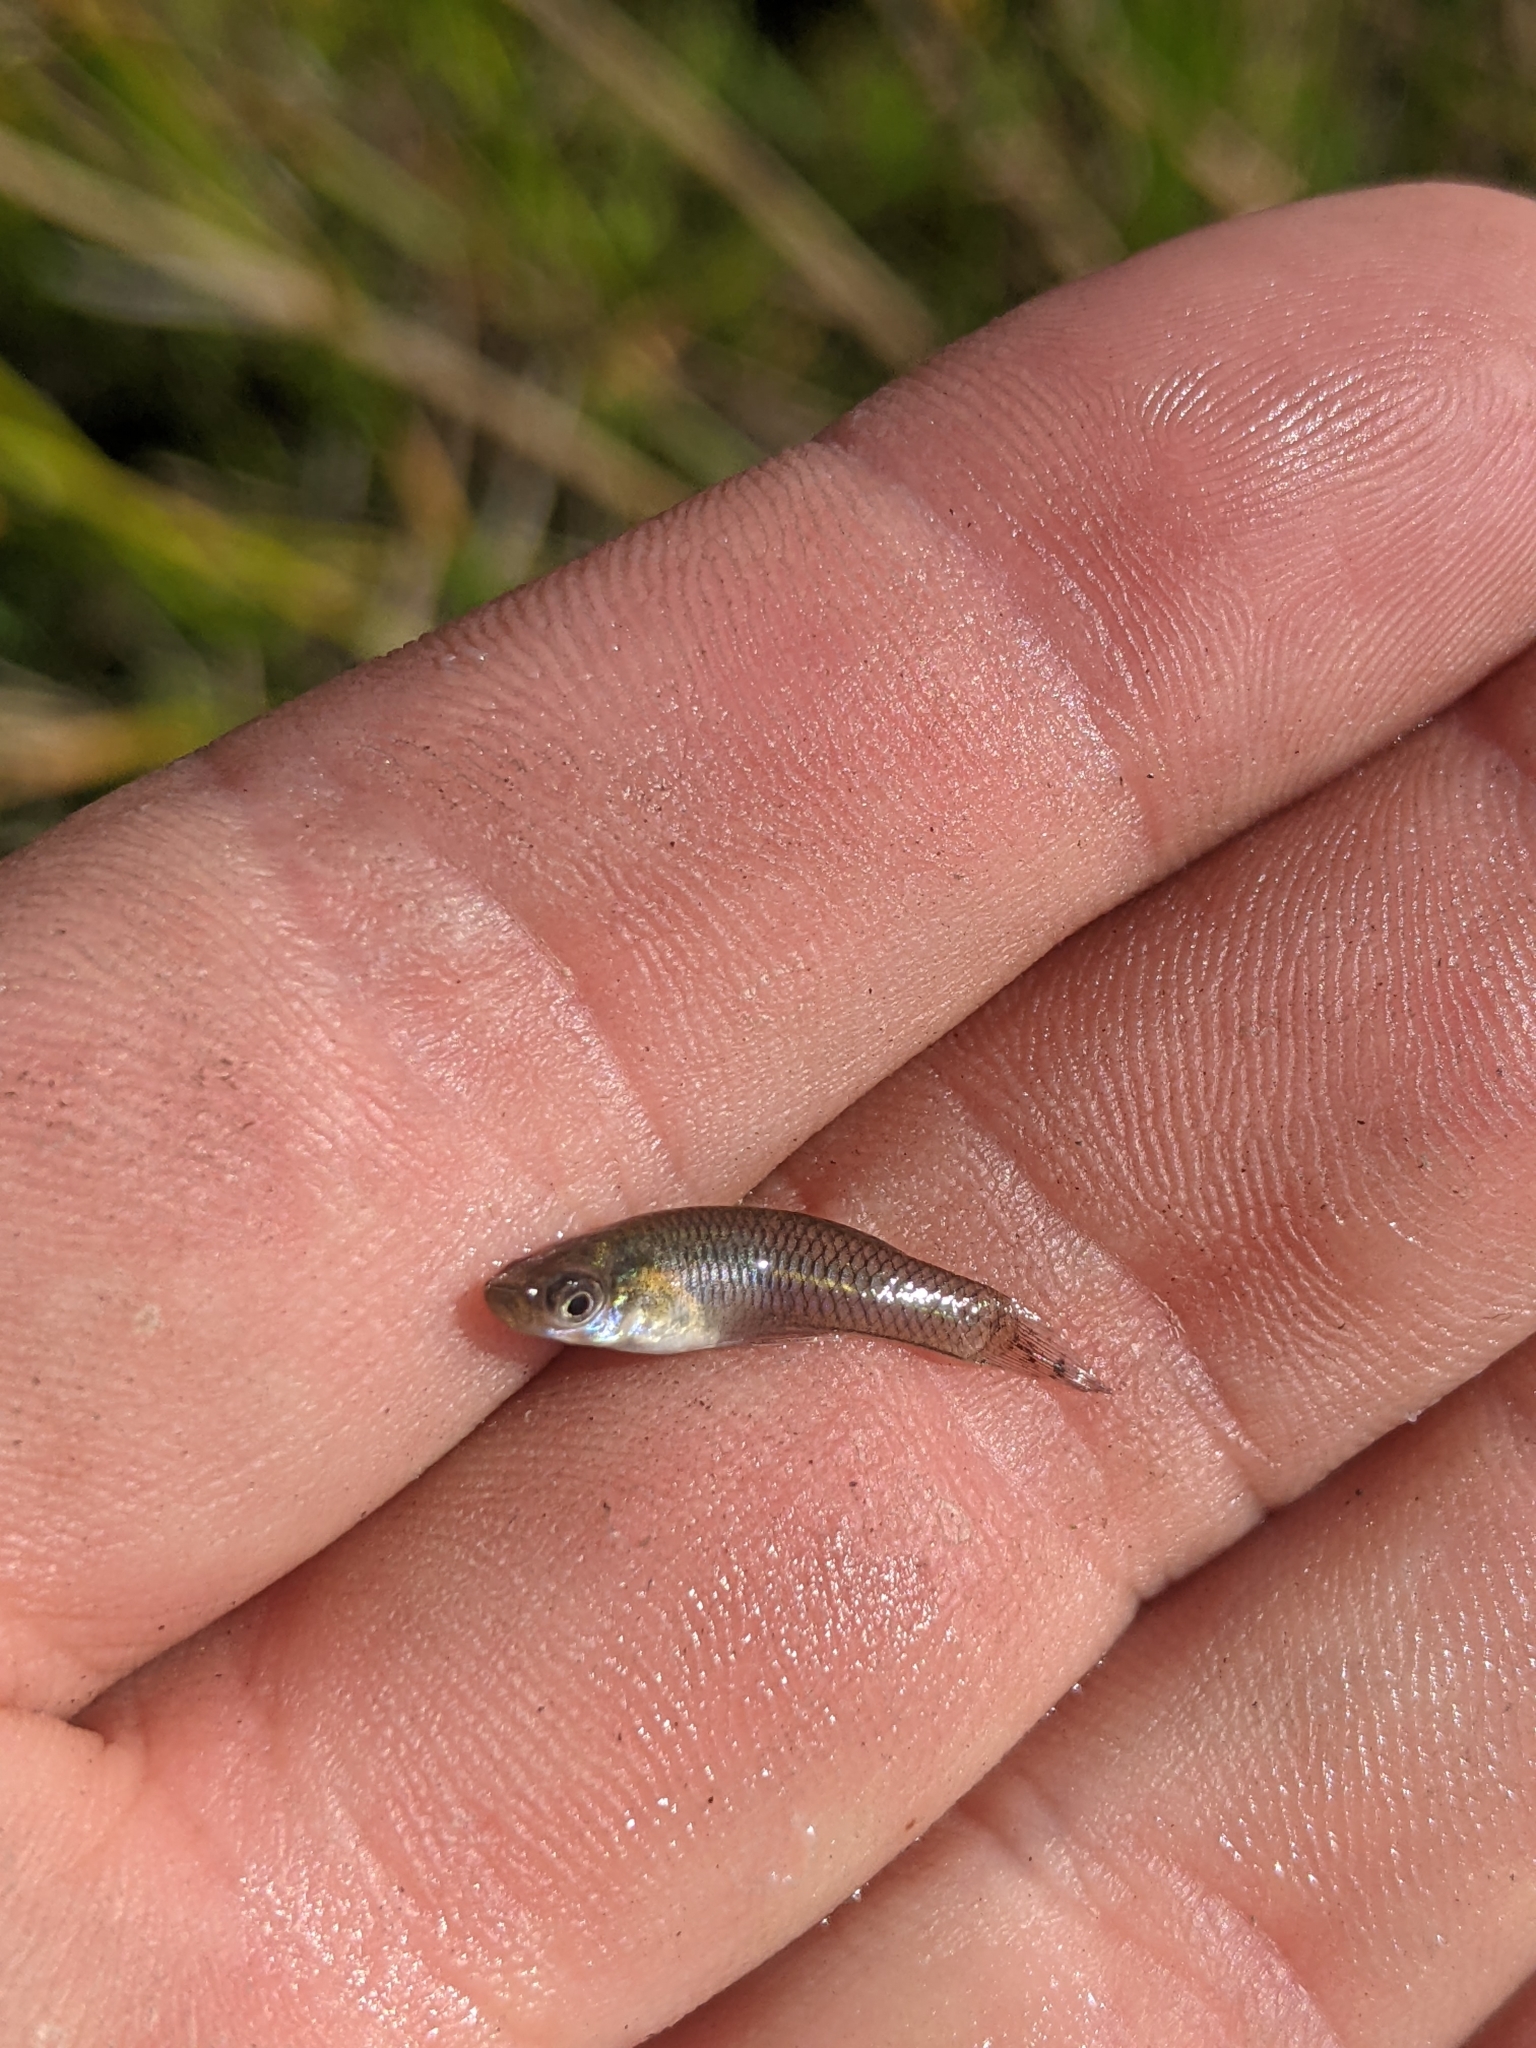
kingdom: Animalia
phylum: Chordata
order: Cyprinodontiformes
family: Poeciliidae
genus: Gambusia
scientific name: Gambusia holbrooki
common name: Eastern mosquitofish
